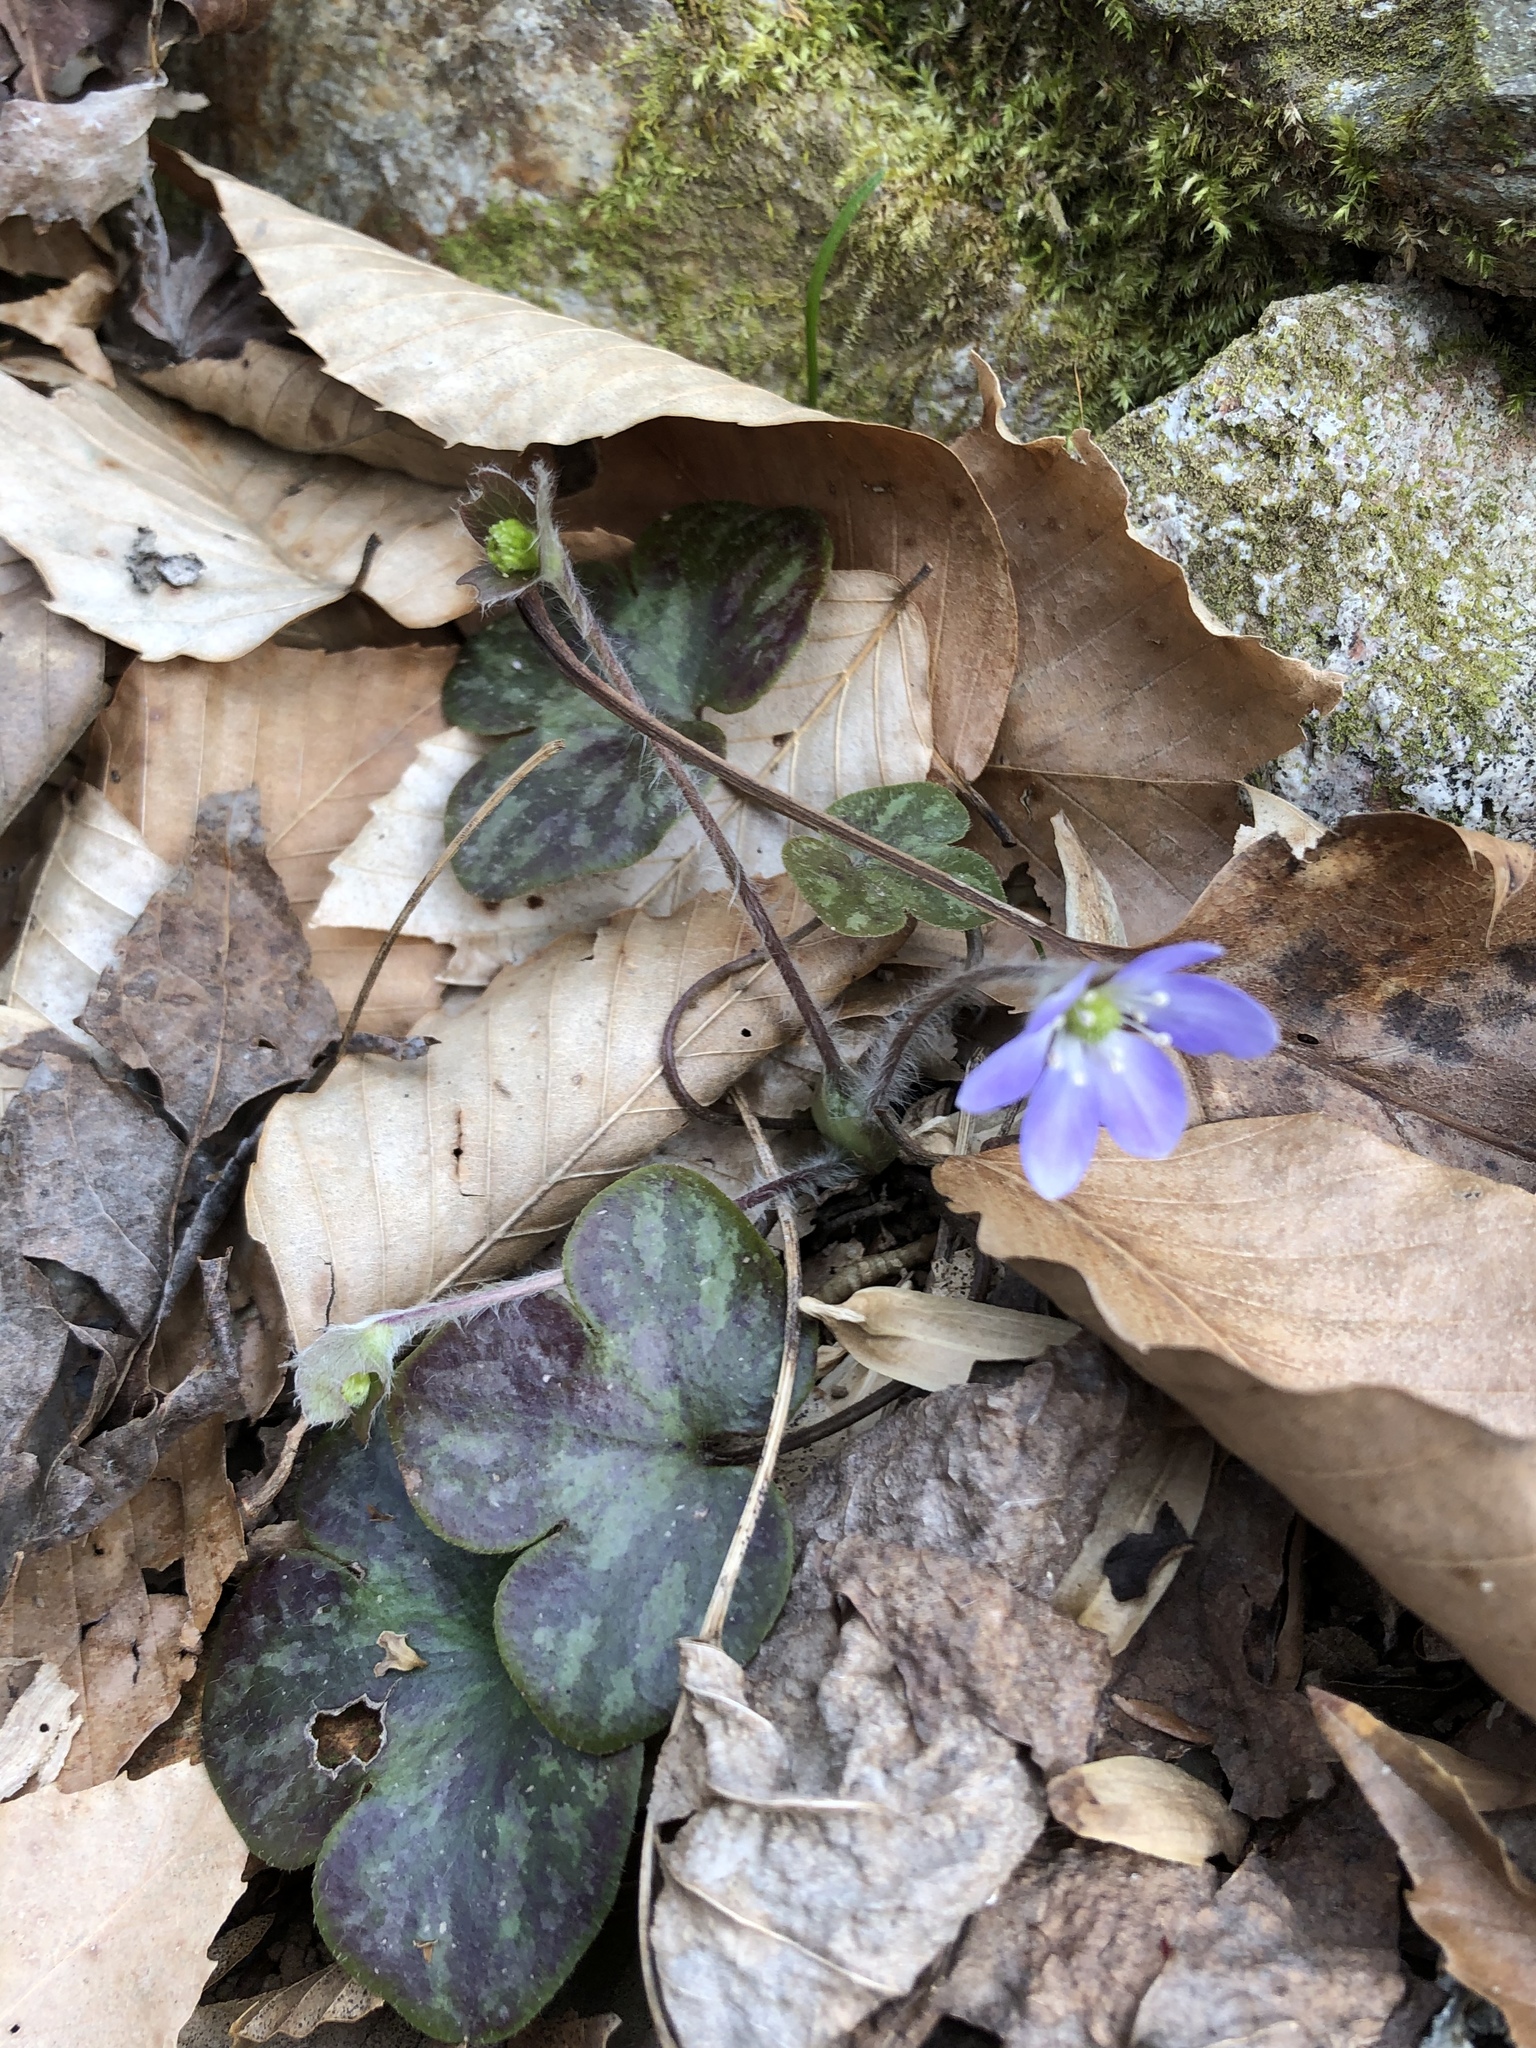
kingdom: Plantae
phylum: Tracheophyta
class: Magnoliopsida
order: Ranunculales
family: Ranunculaceae
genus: Hepatica
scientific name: Hepatica americana
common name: American hepatica
